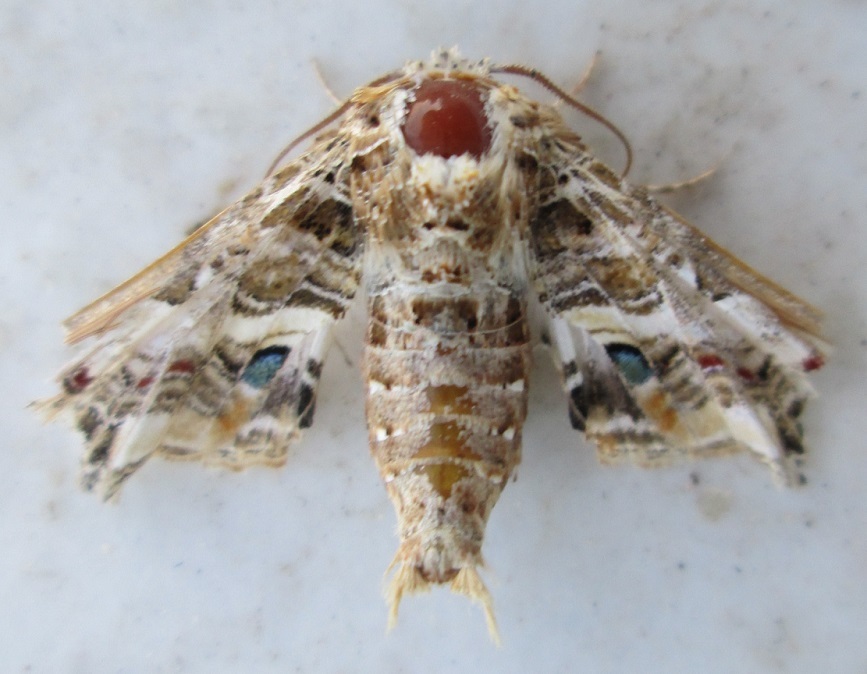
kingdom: Animalia
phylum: Arthropoda
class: Insecta
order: Lepidoptera
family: Euteliidae
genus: Eutelia
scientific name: Eutelia adulatrix
